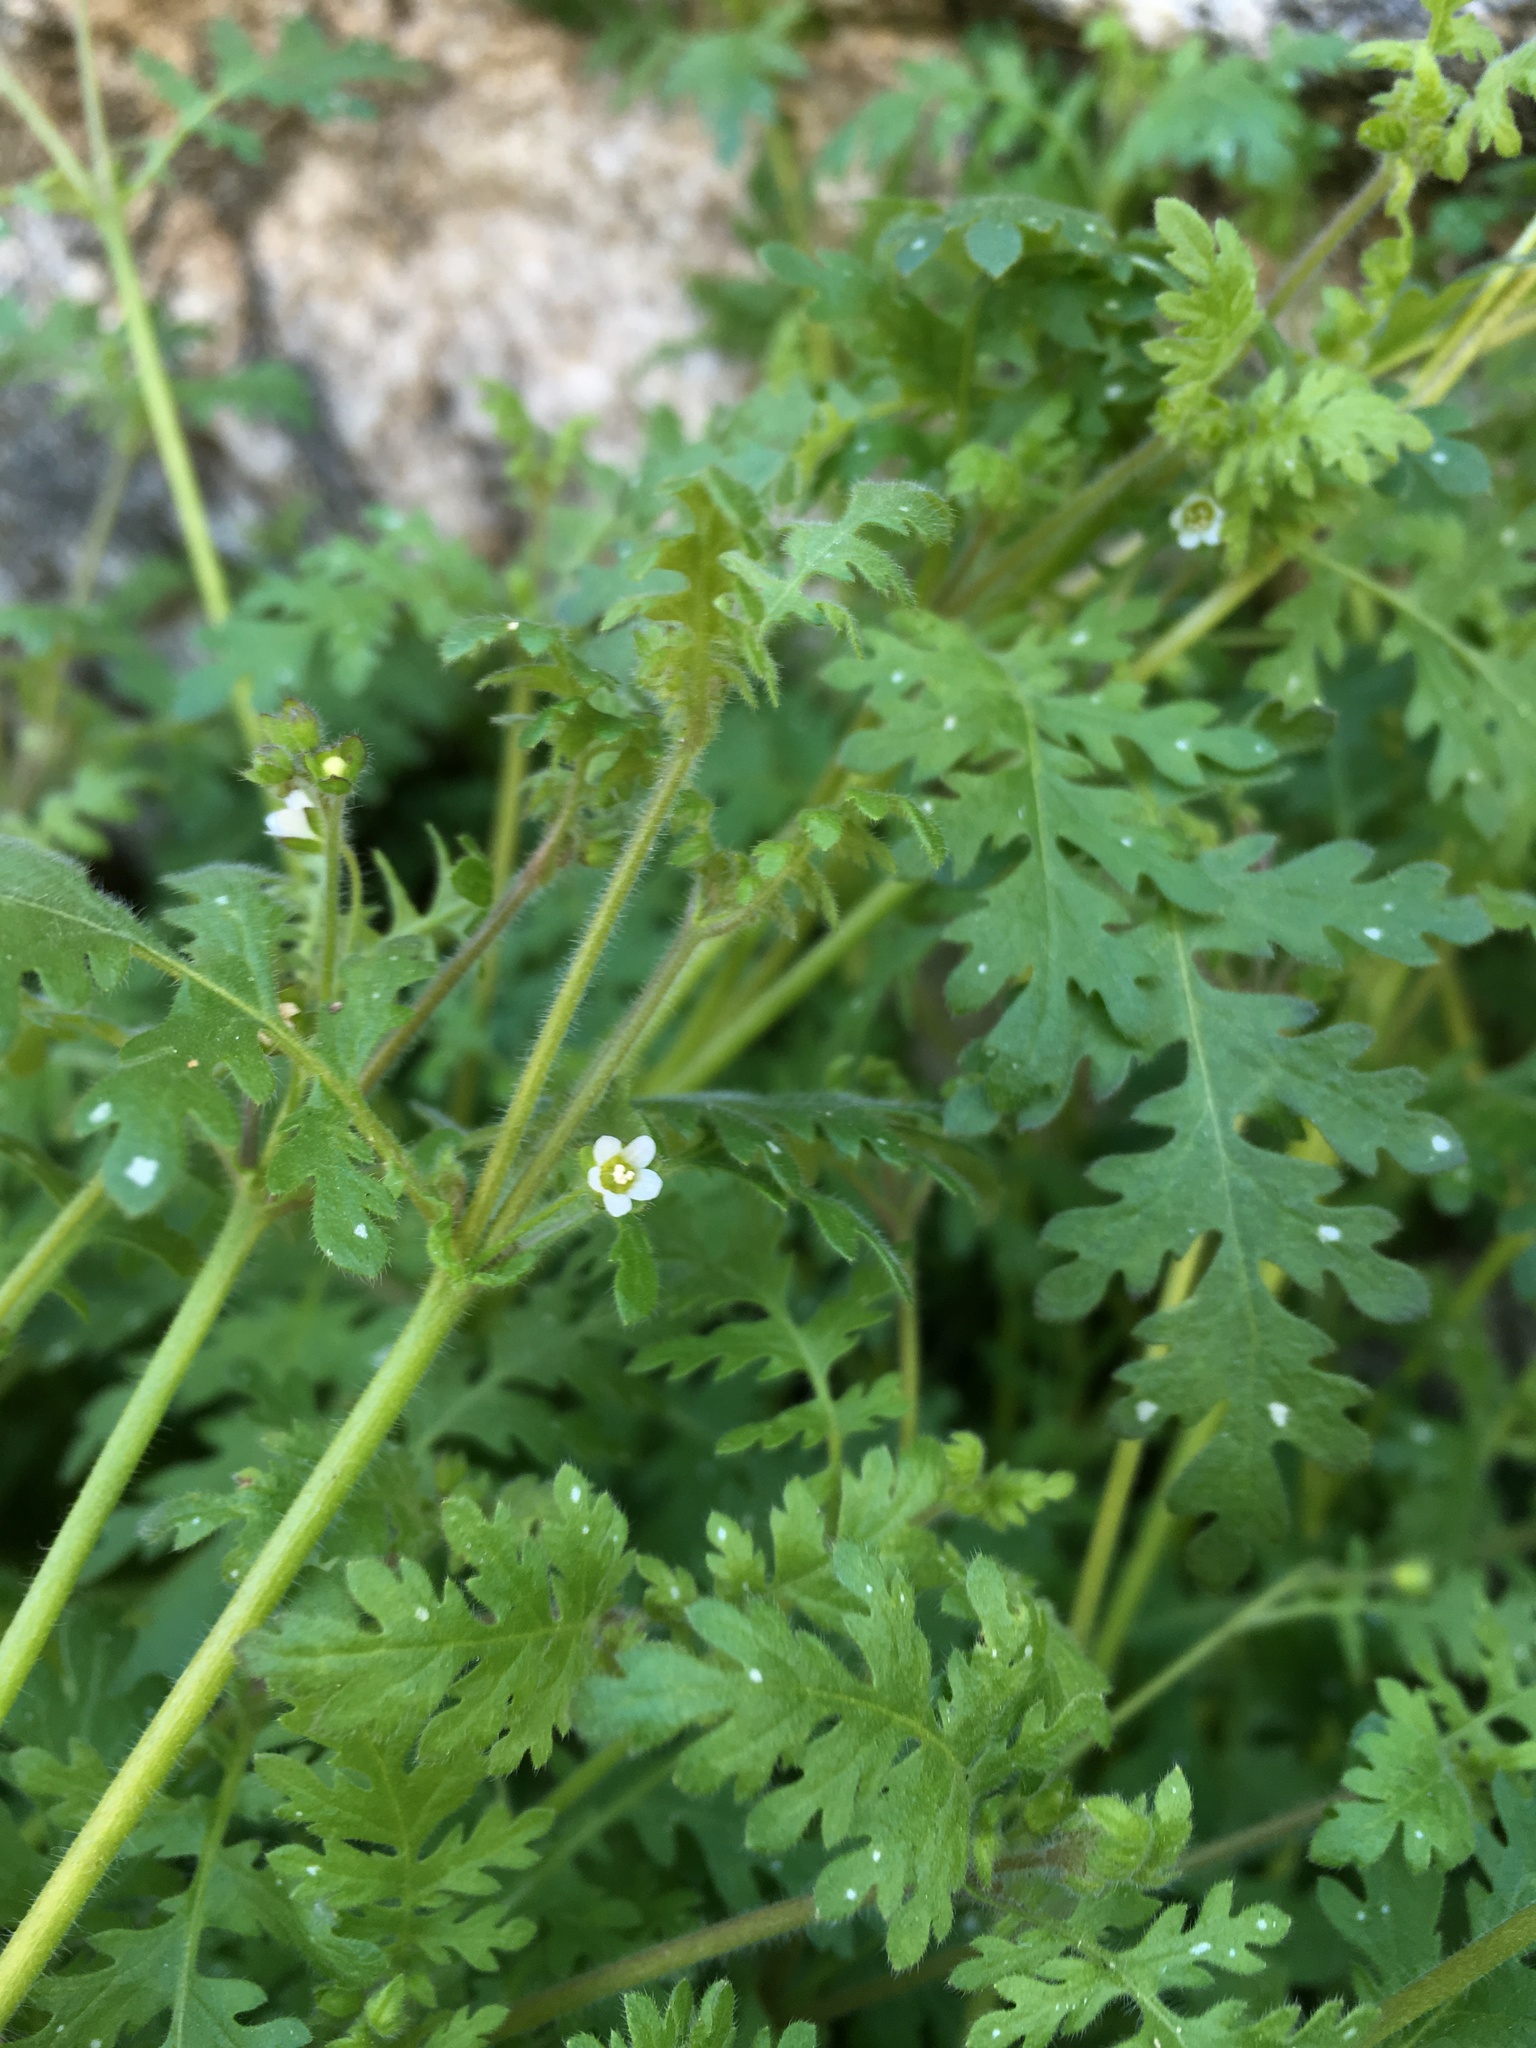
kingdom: Plantae
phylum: Tracheophyta
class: Magnoliopsida
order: Boraginales
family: Hydrophyllaceae
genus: Eucrypta
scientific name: Eucrypta chrysanthemifolia
